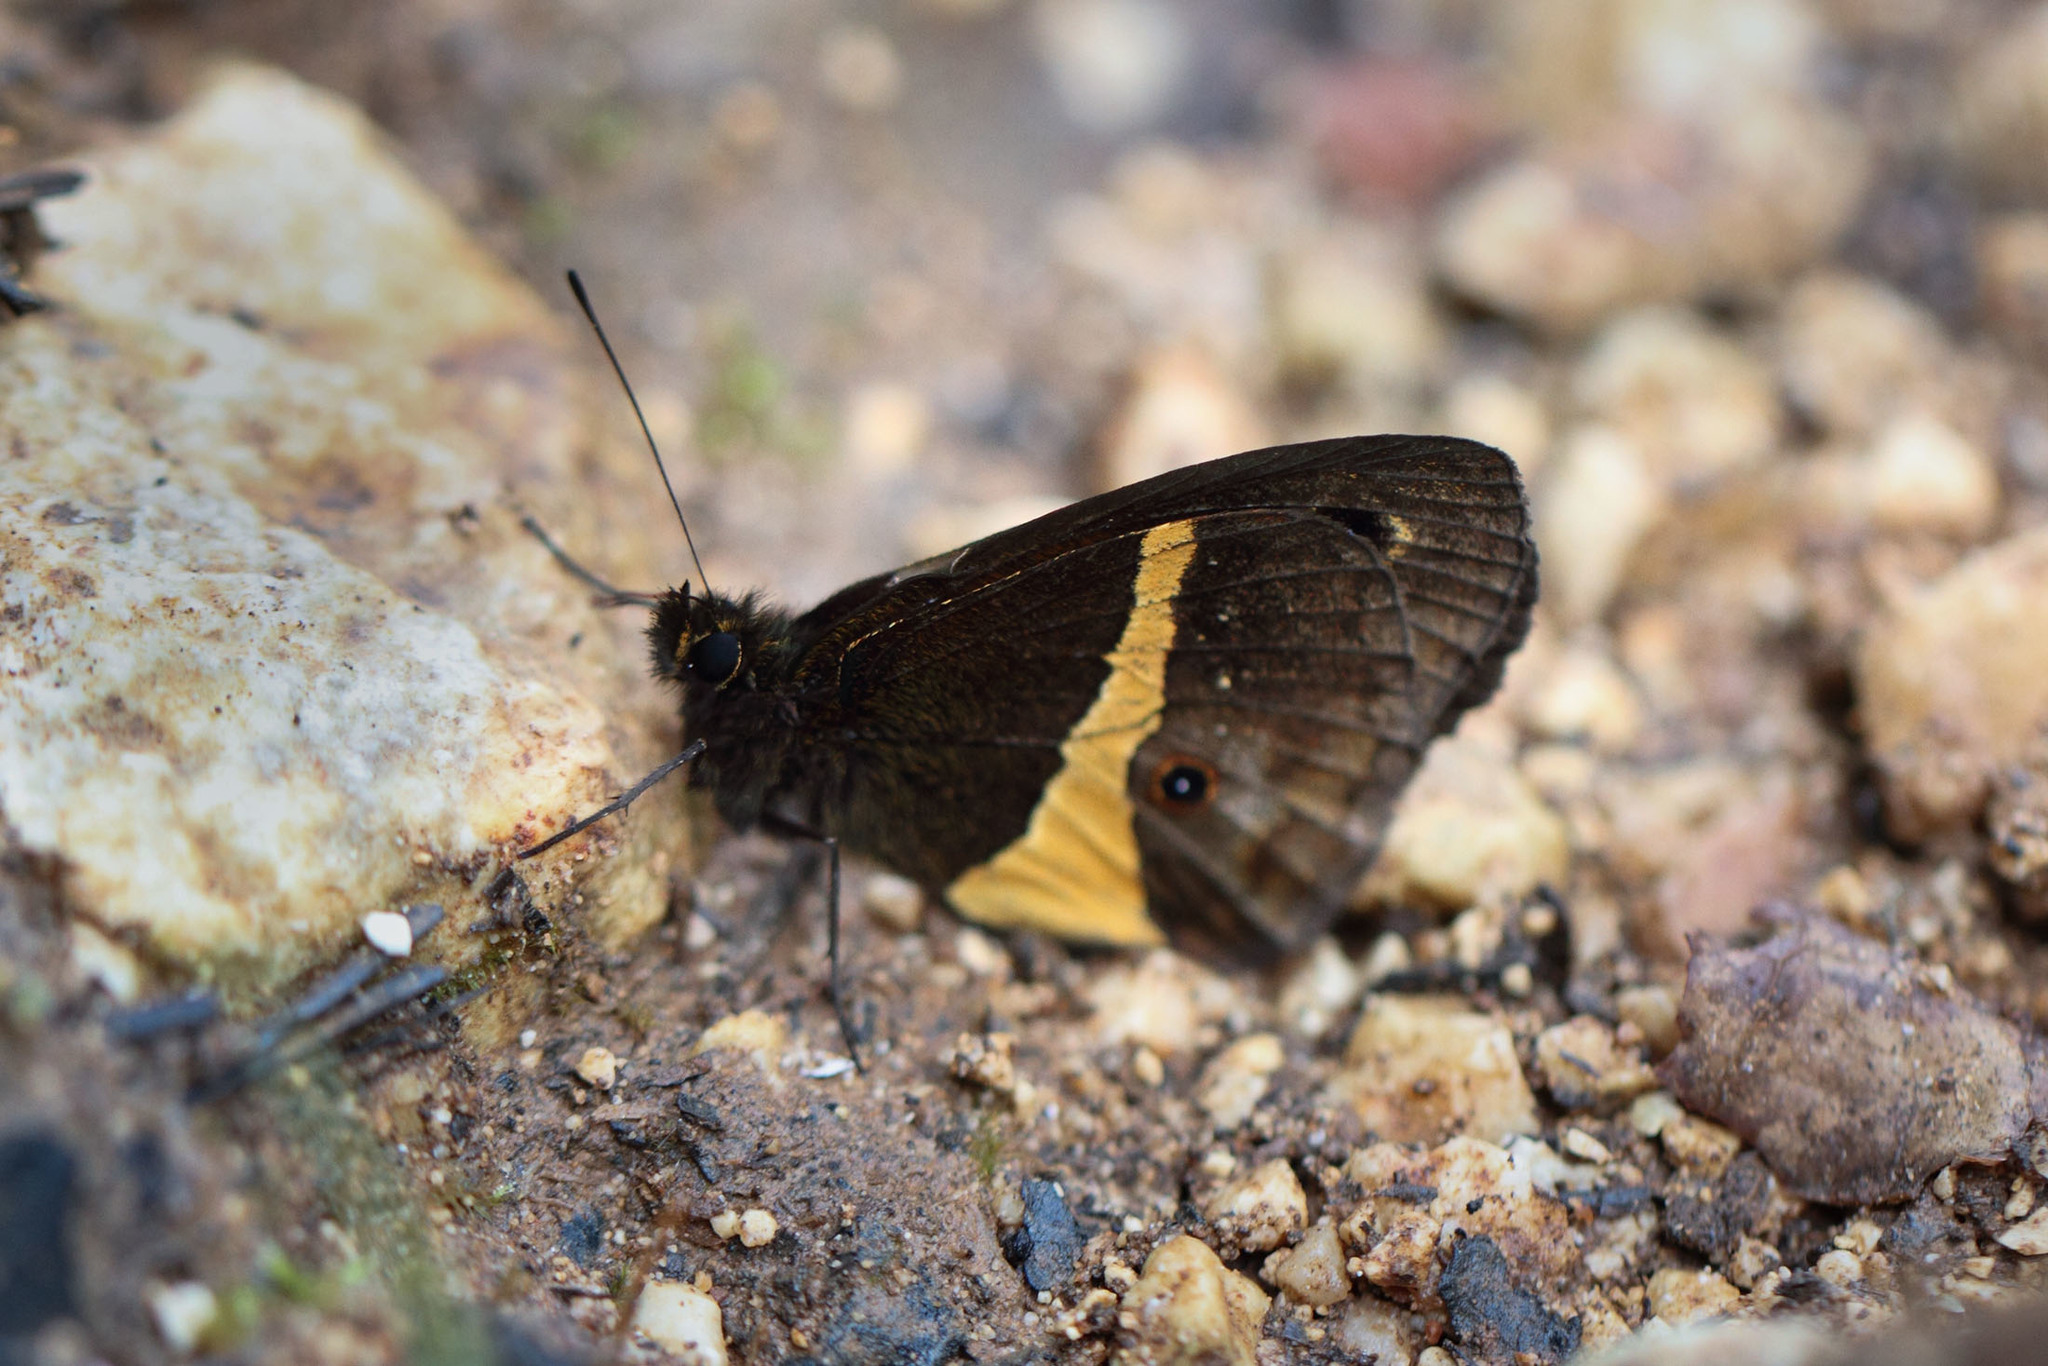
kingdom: Animalia
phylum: Arthropoda
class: Insecta
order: Lepidoptera
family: Nymphalidae
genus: Calisto
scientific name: Calisto archebates
